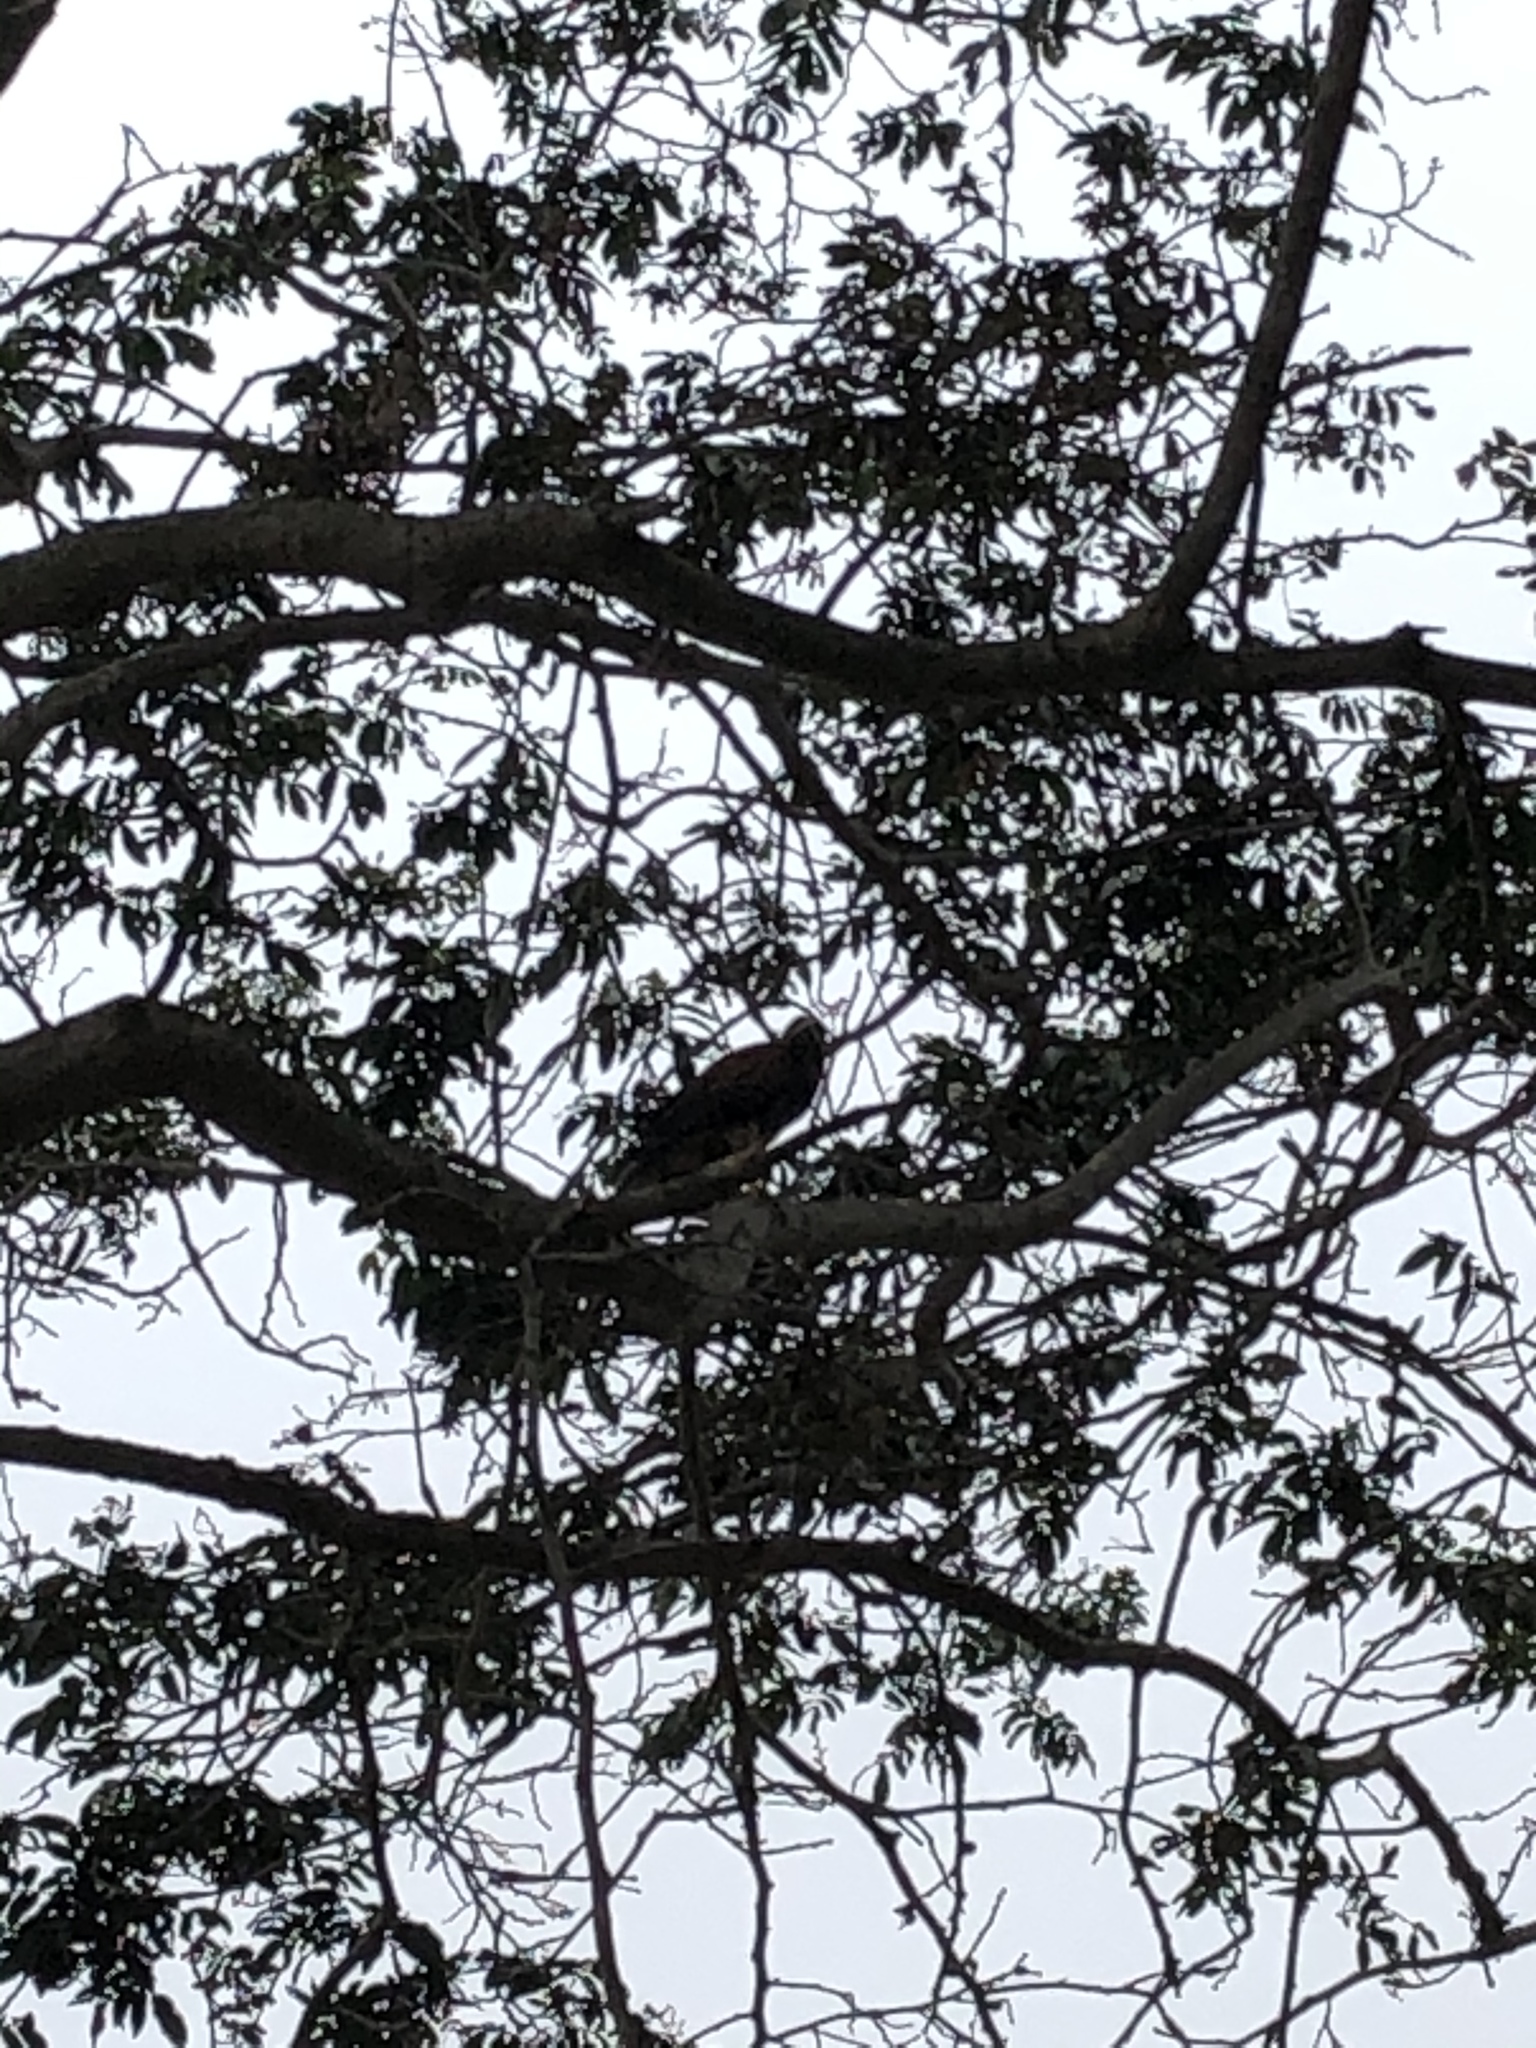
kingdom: Animalia
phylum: Chordata
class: Aves
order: Accipitriformes
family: Accipitridae
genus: Parabuteo
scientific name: Parabuteo unicinctus
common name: Harris's hawk
